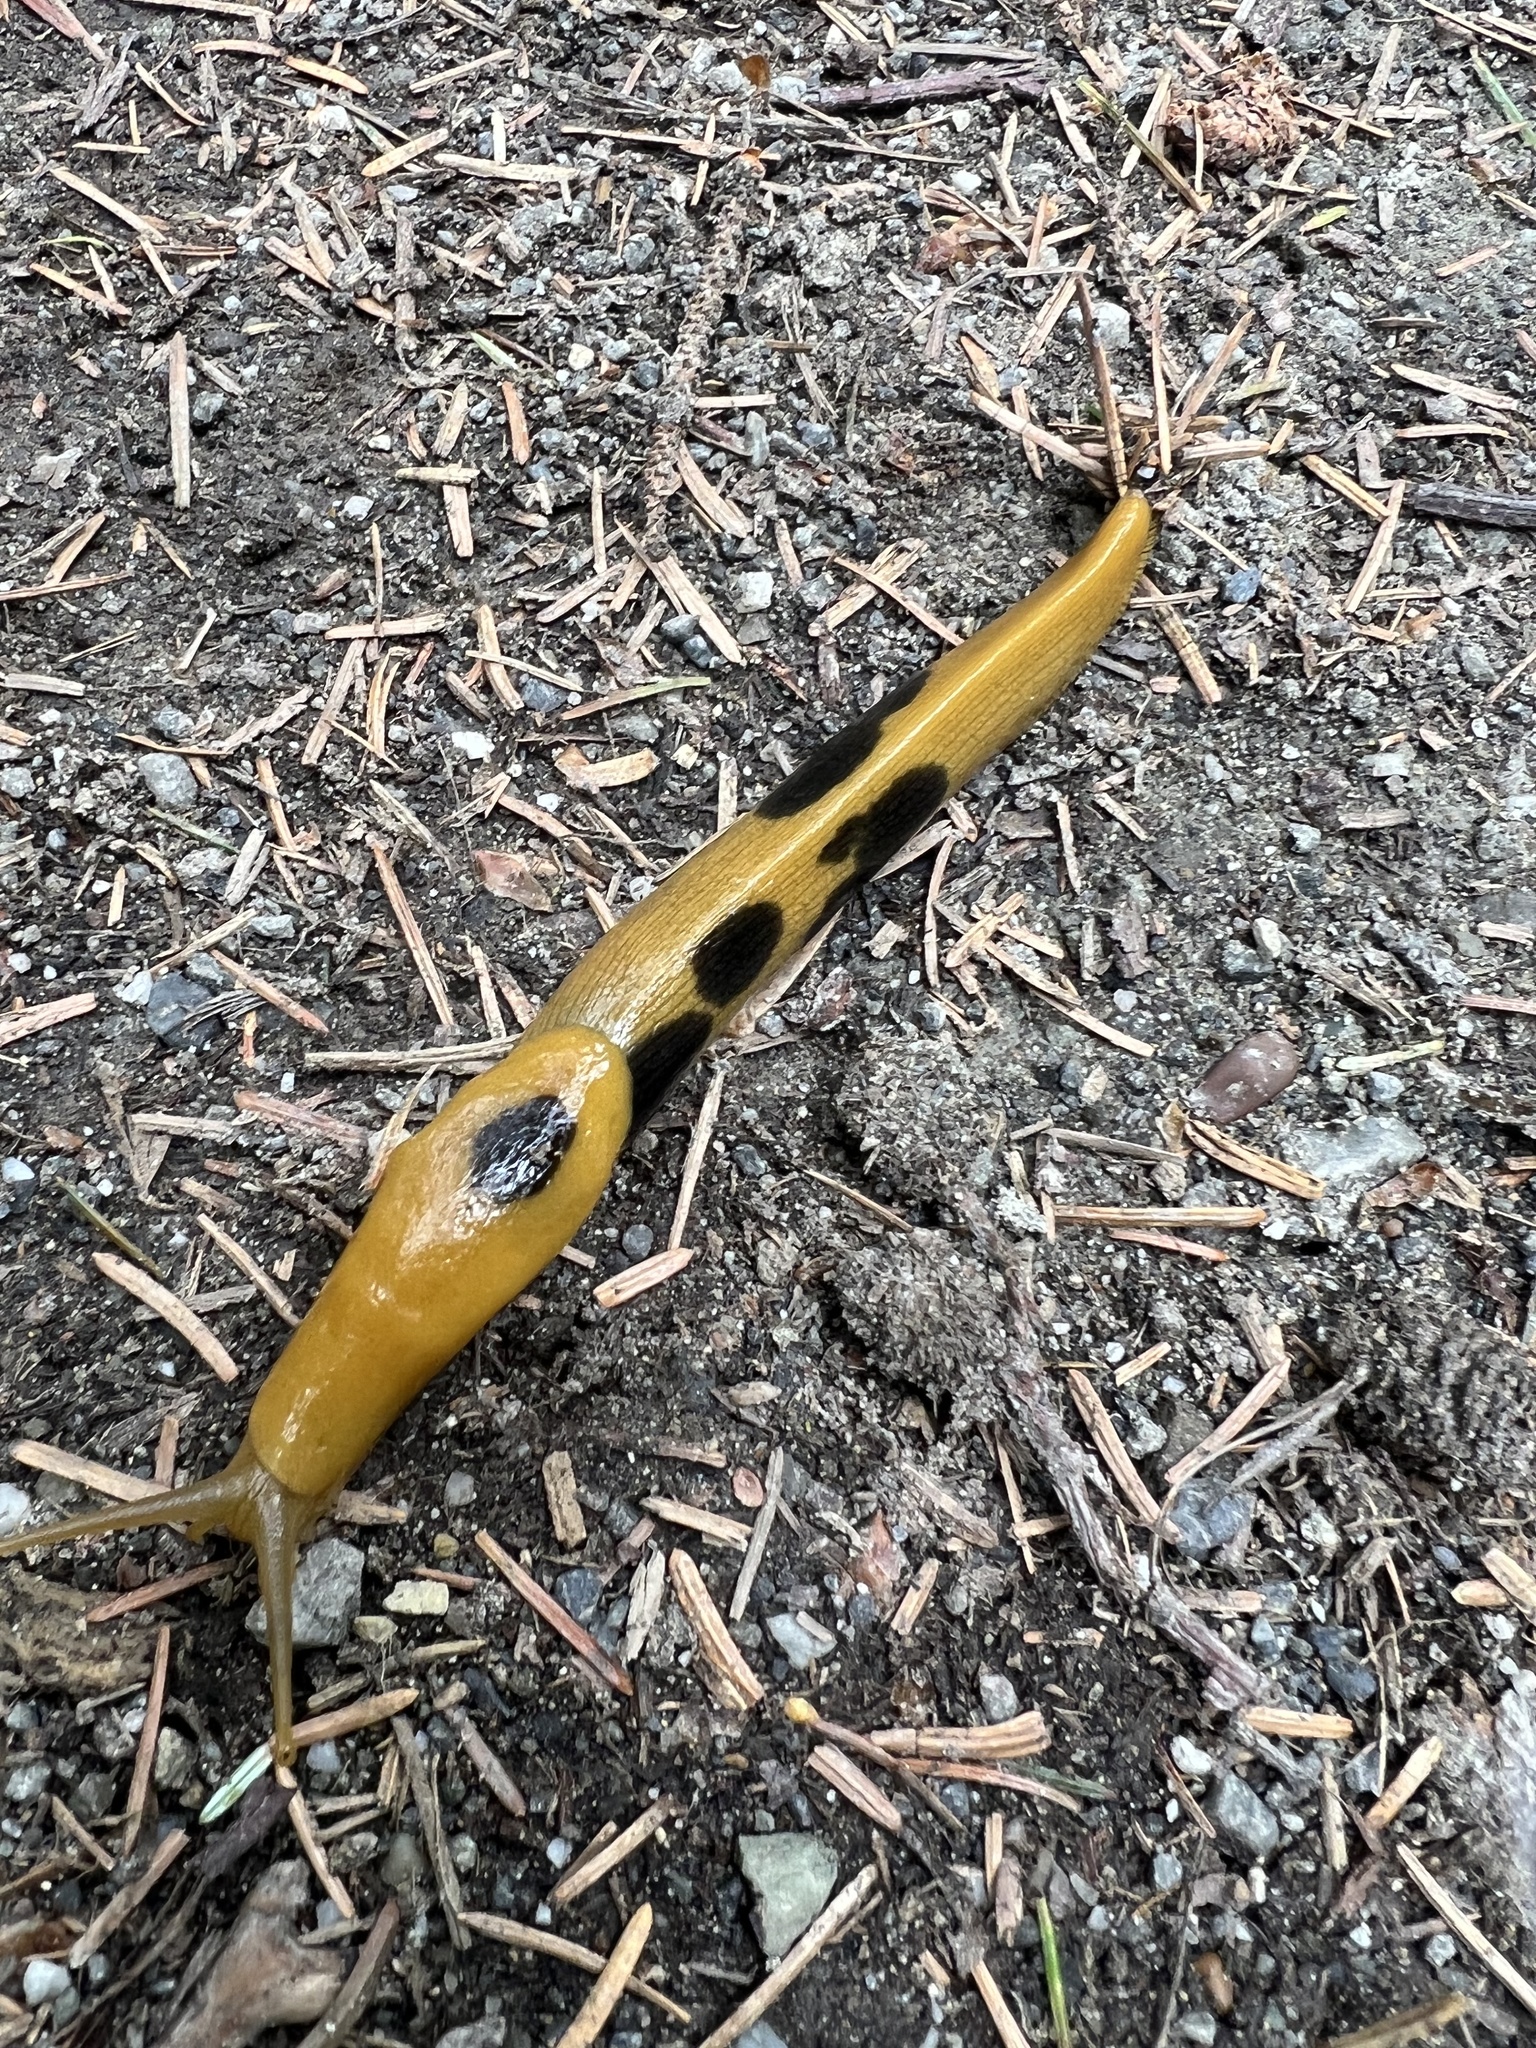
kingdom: Animalia
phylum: Mollusca
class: Gastropoda
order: Stylommatophora
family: Ariolimacidae
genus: Ariolimax
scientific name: Ariolimax columbianus
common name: Pacific banana slug
